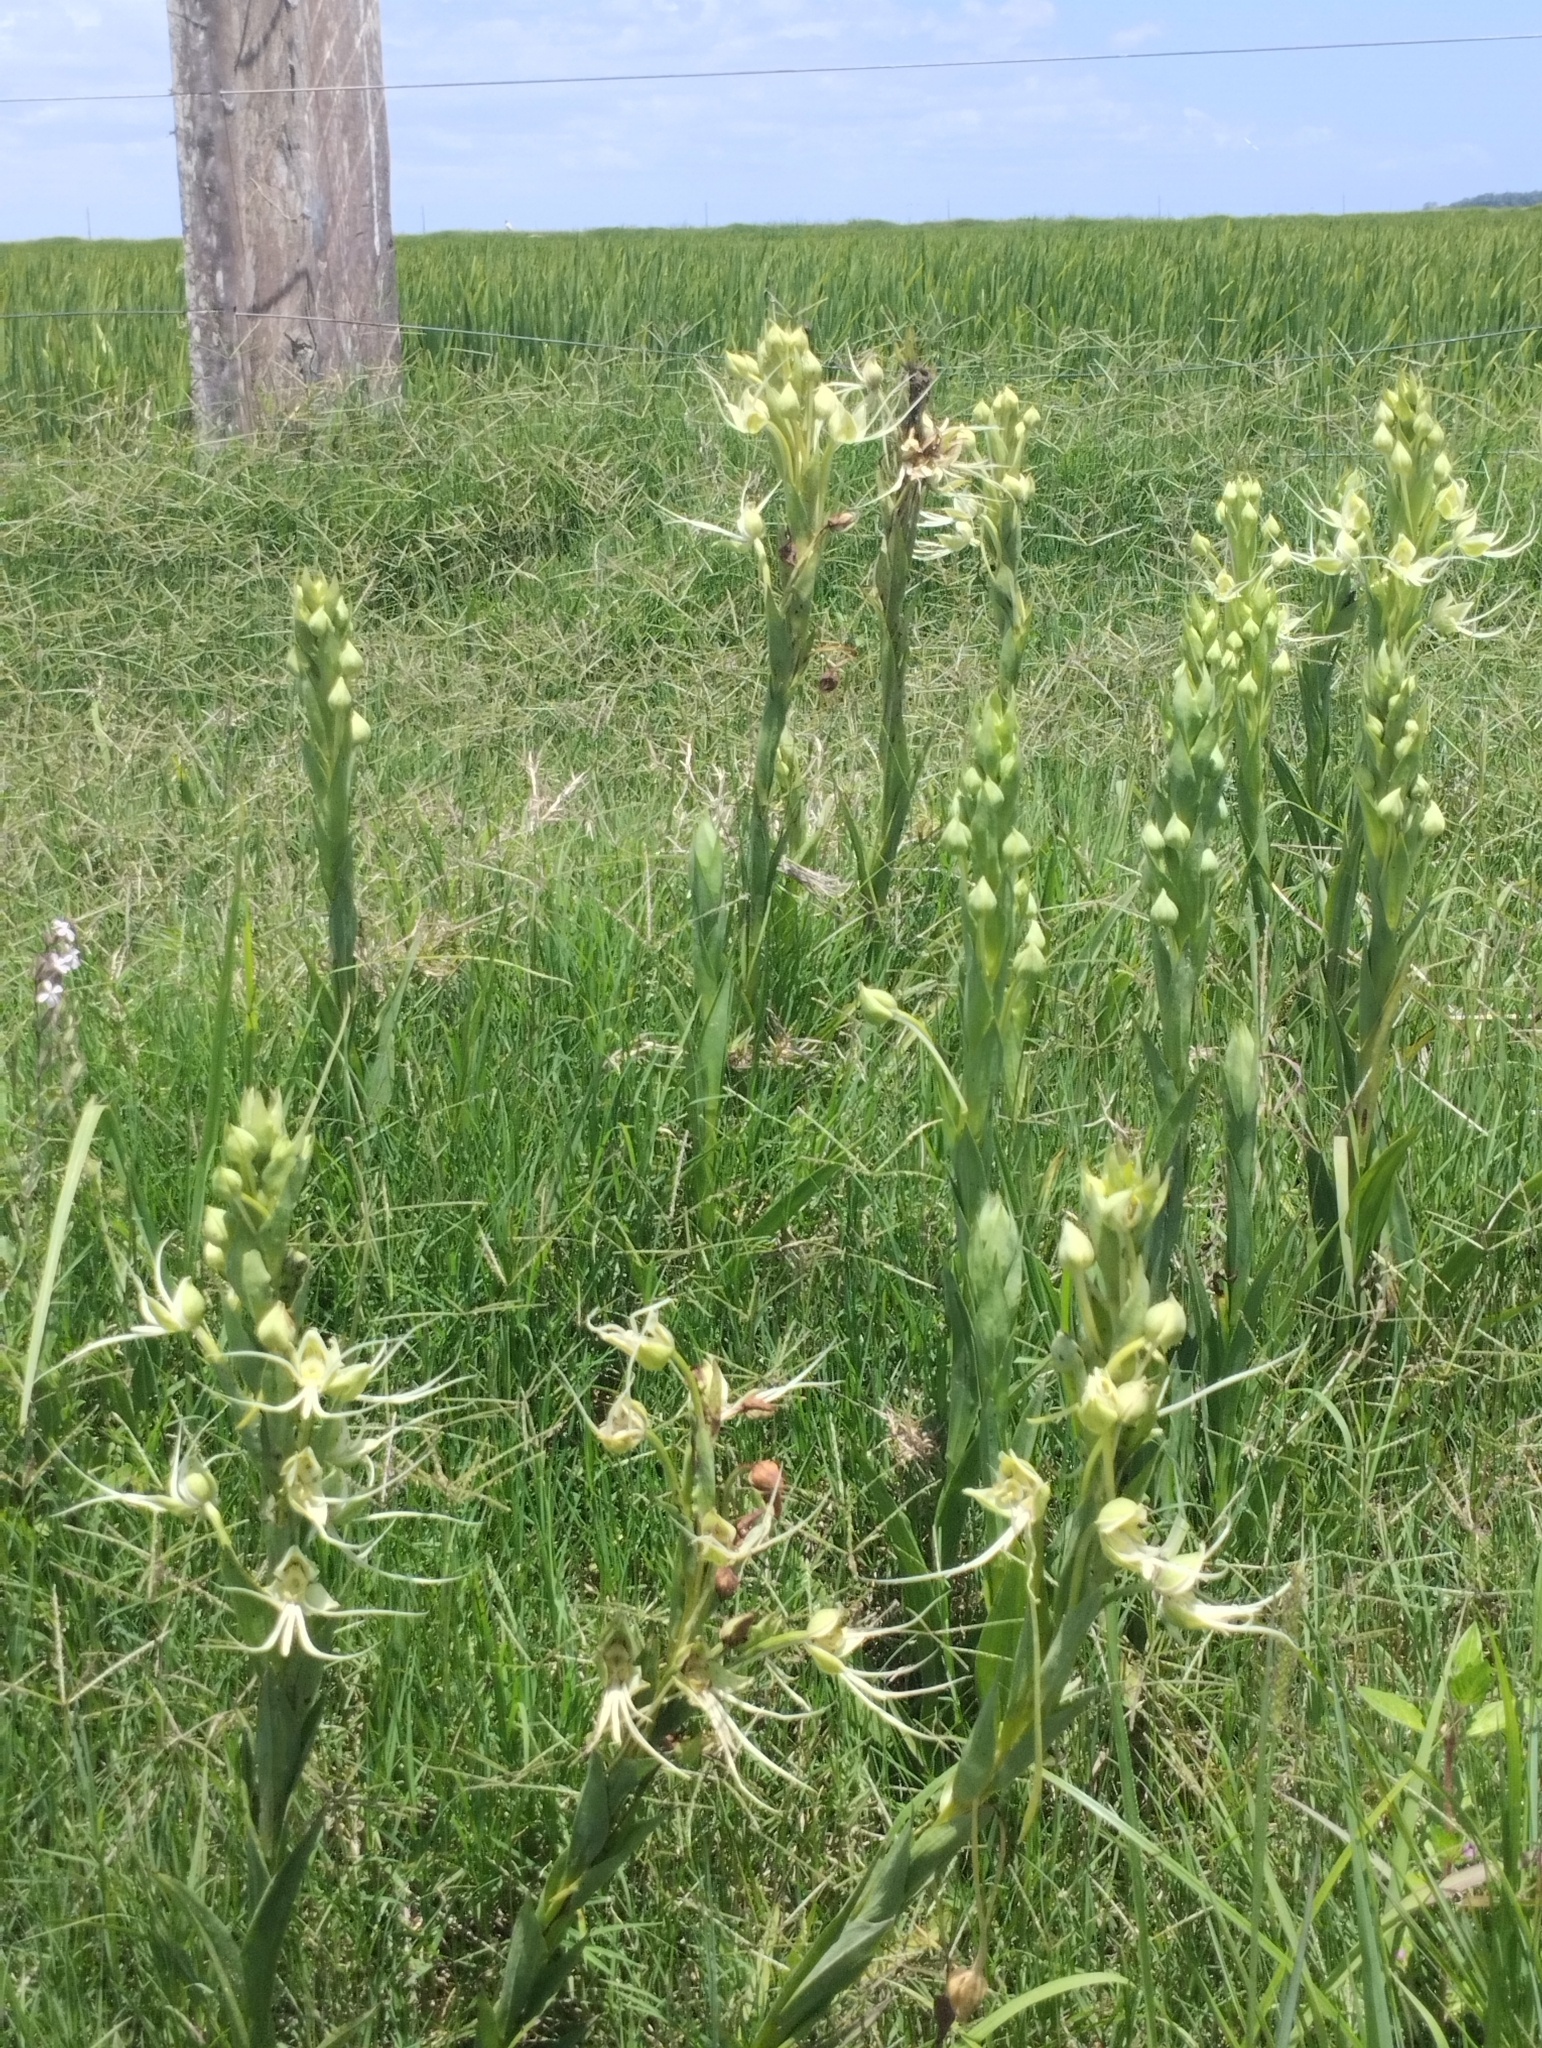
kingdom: Plantae
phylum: Tracheophyta
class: Liliopsida
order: Asparagales
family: Orchidaceae
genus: Habenaria
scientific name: Habenaria gourlieana
